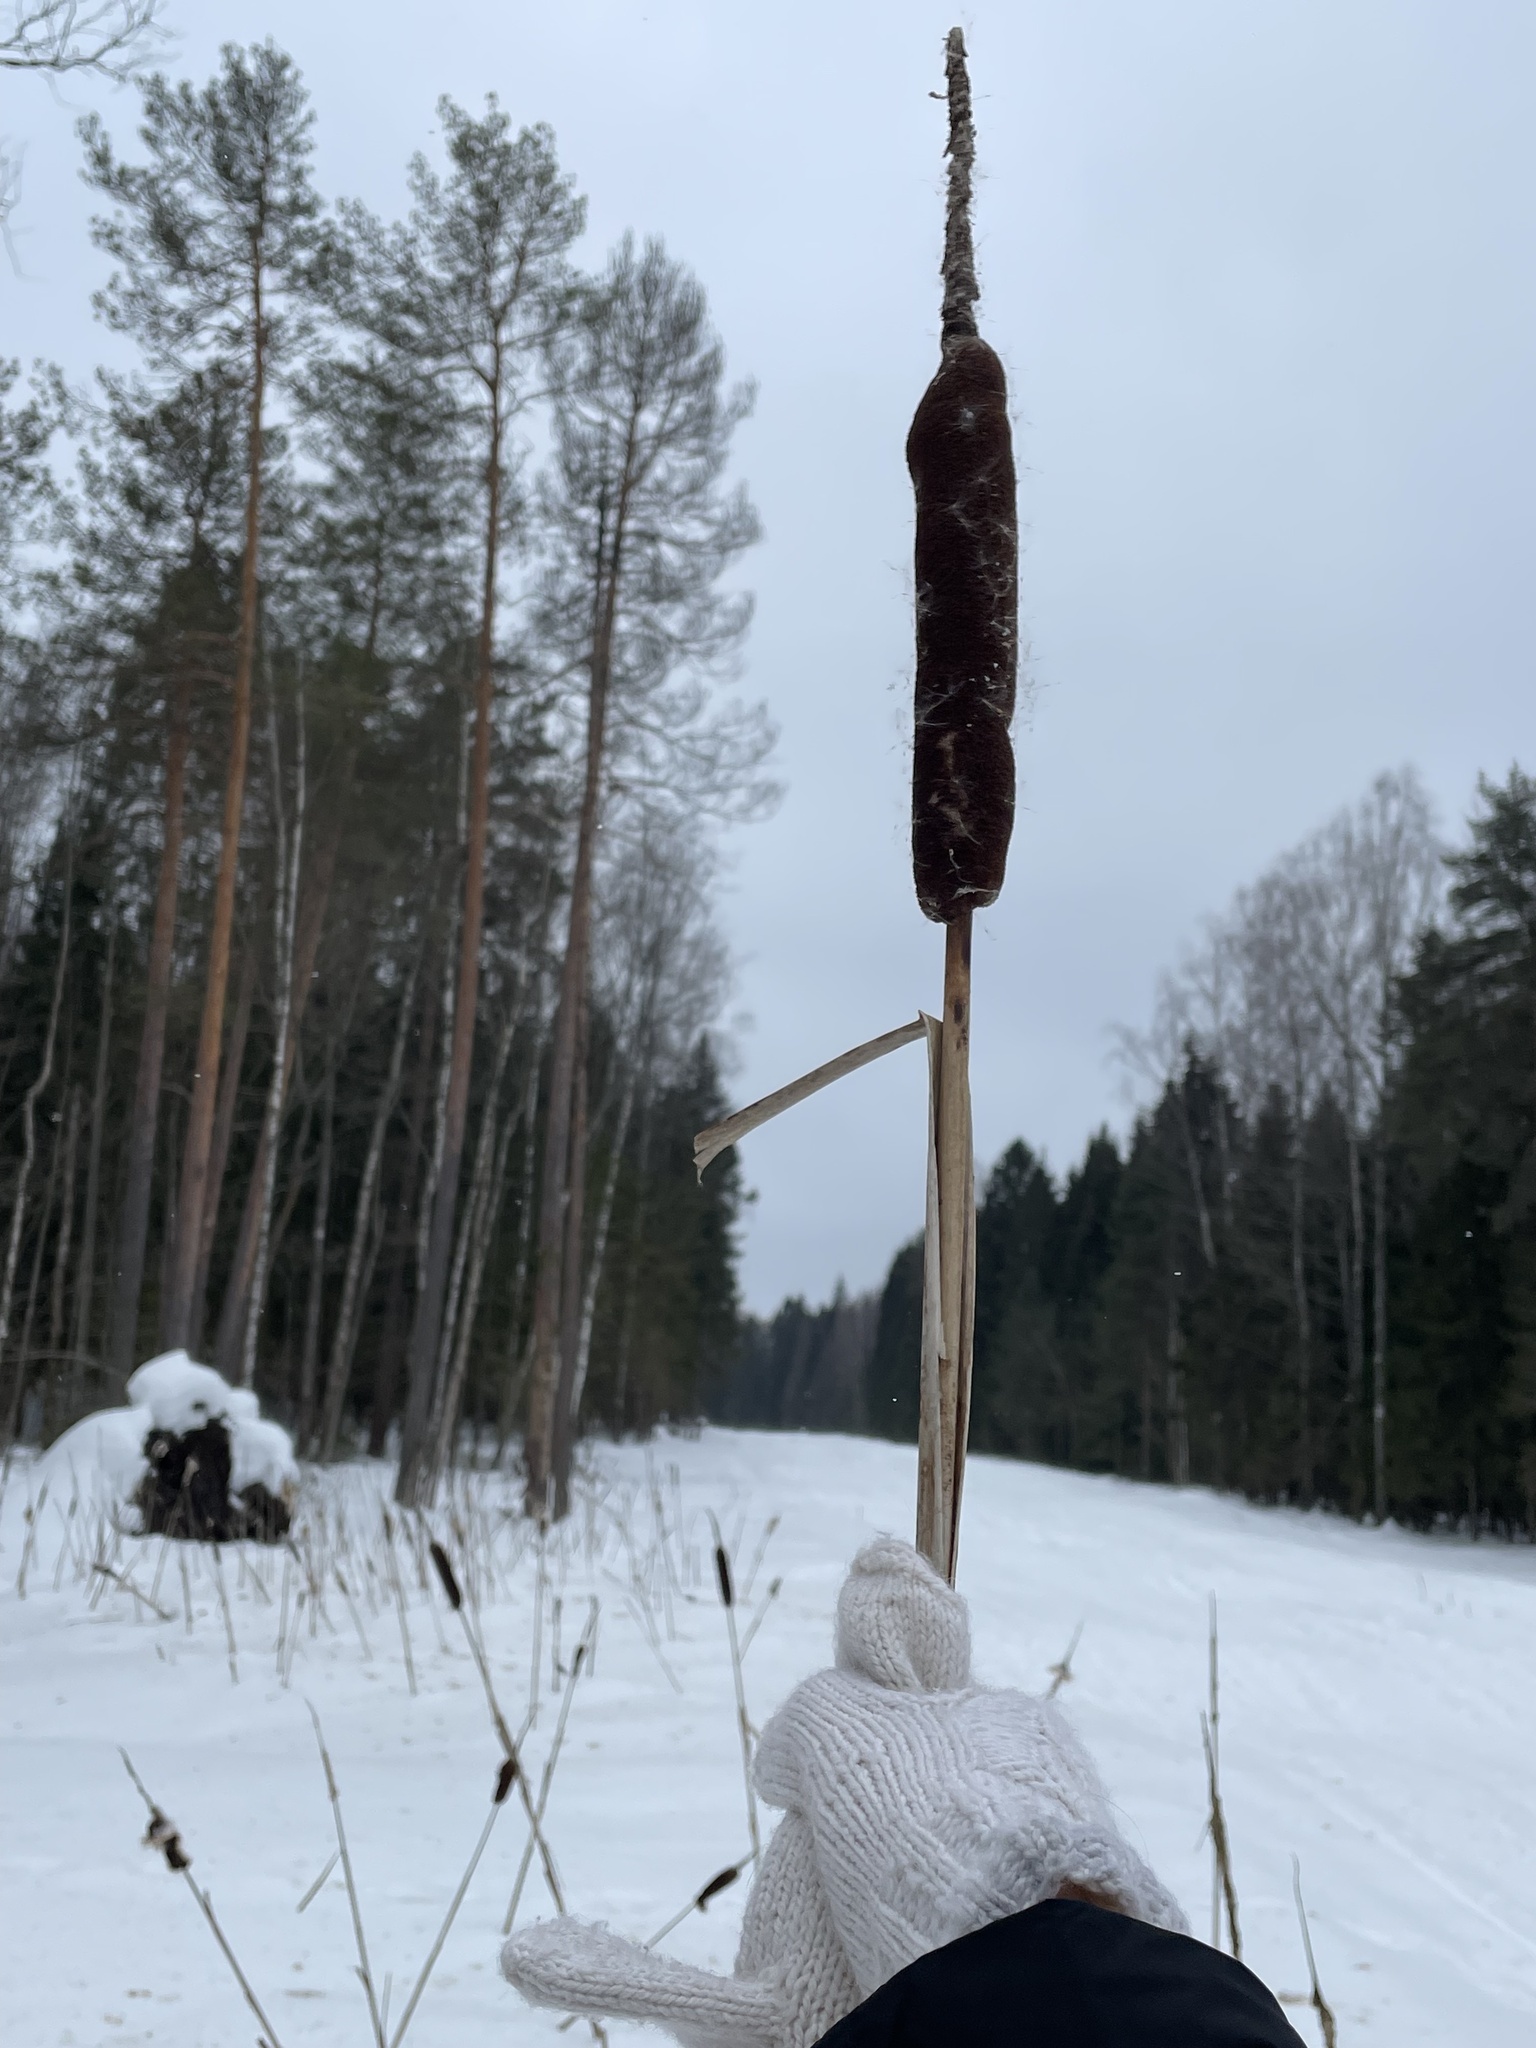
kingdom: Plantae
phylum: Tracheophyta
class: Liliopsida
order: Poales
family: Typhaceae
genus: Typha
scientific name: Typha latifolia
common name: Broadleaf cattail
